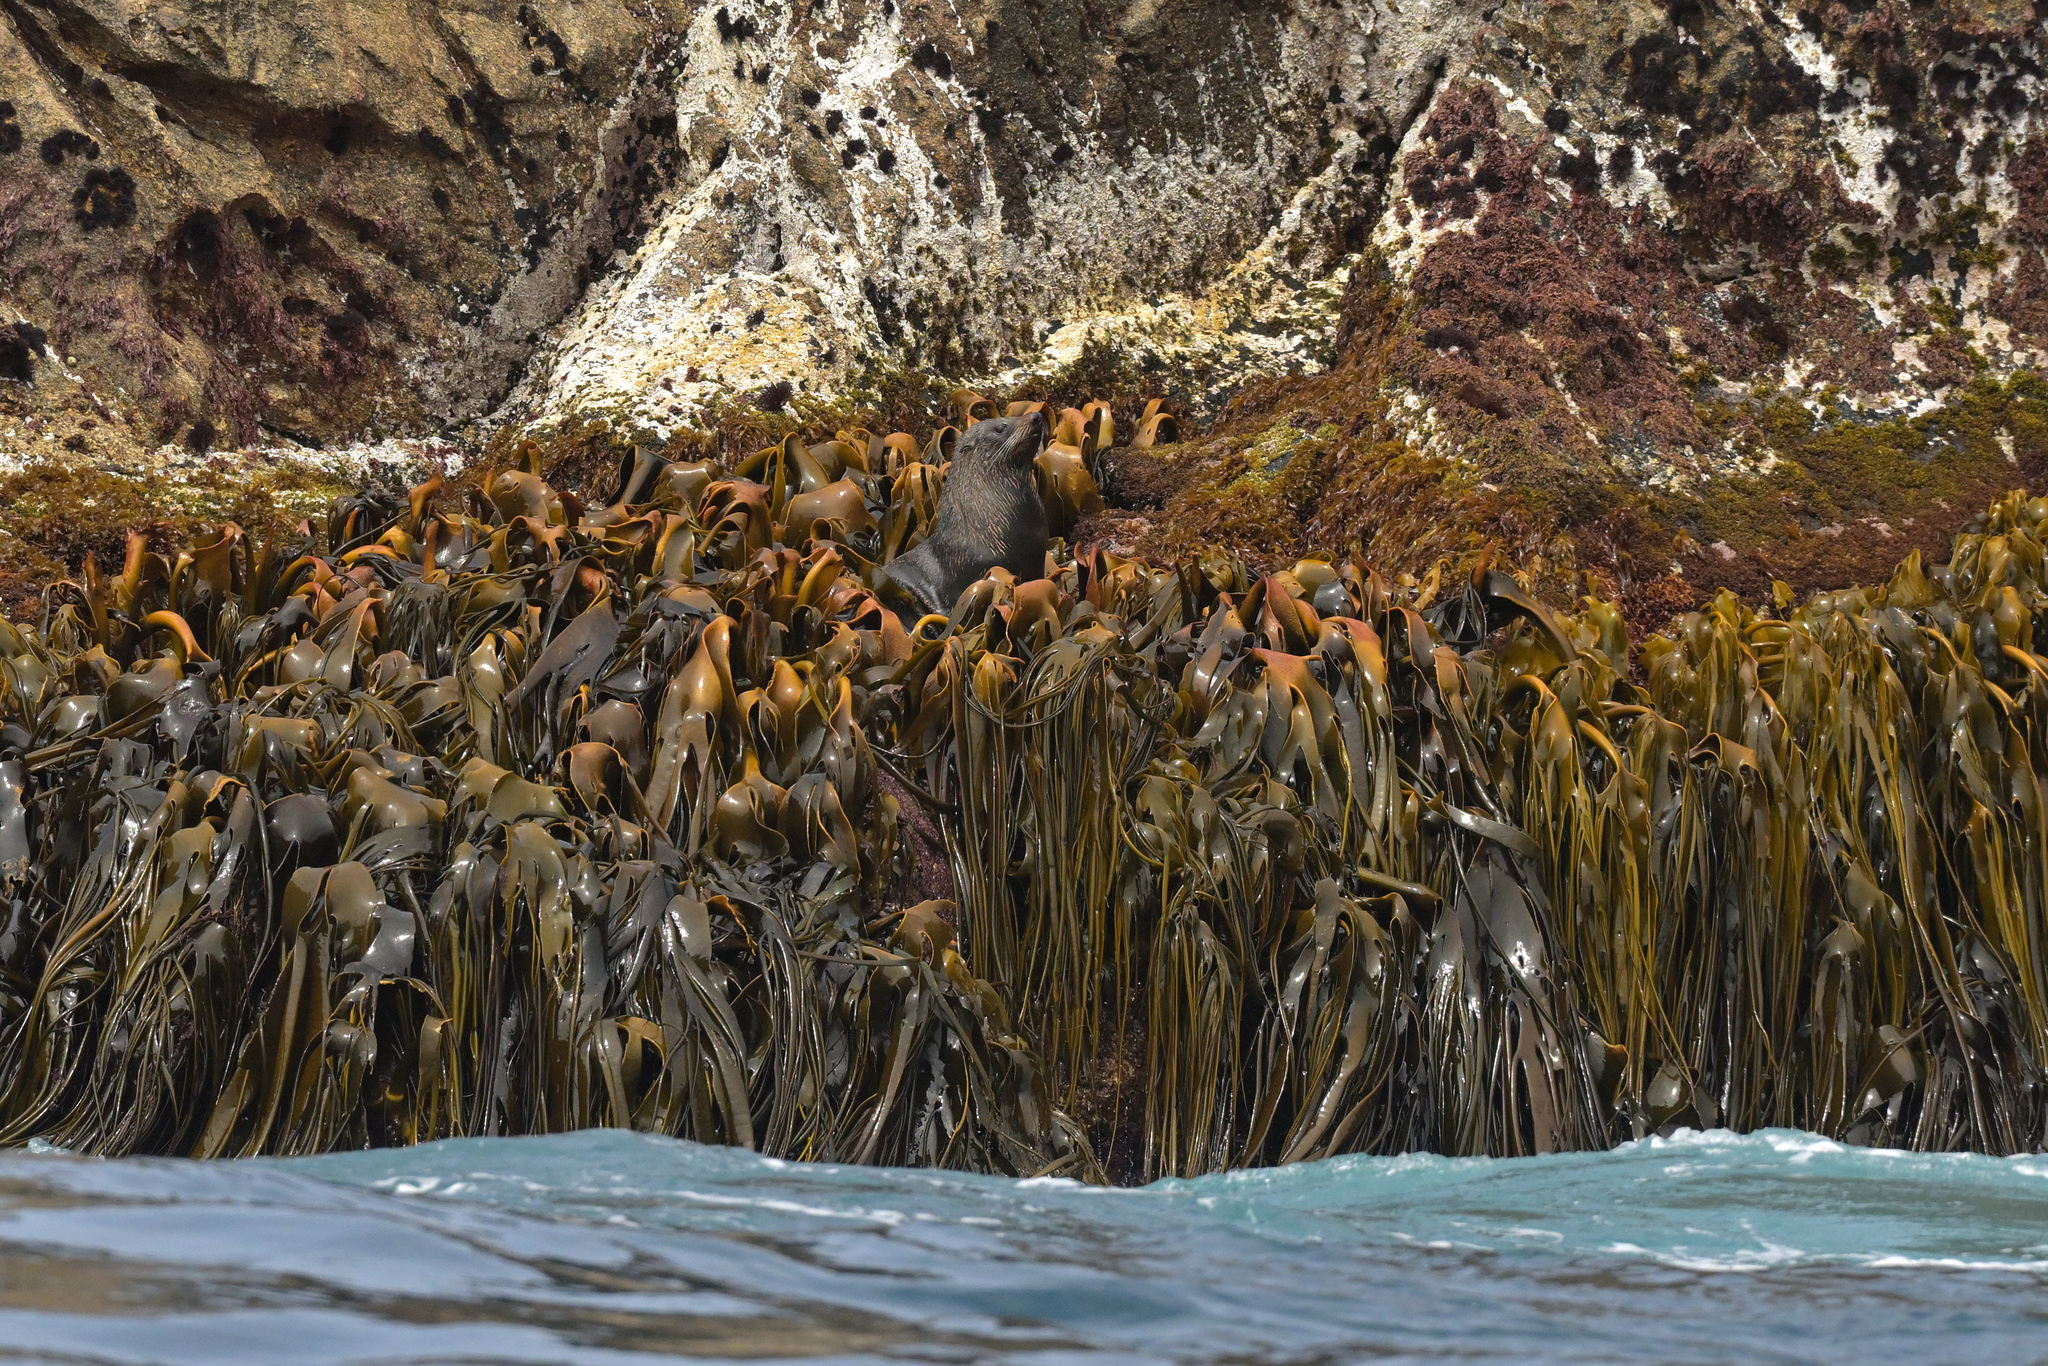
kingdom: Chromista
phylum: Ochrophyta
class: Phaeophyceae
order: Fucales
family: Durvillaeaceae
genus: Durvillaea
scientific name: Durvillaea antarctica
